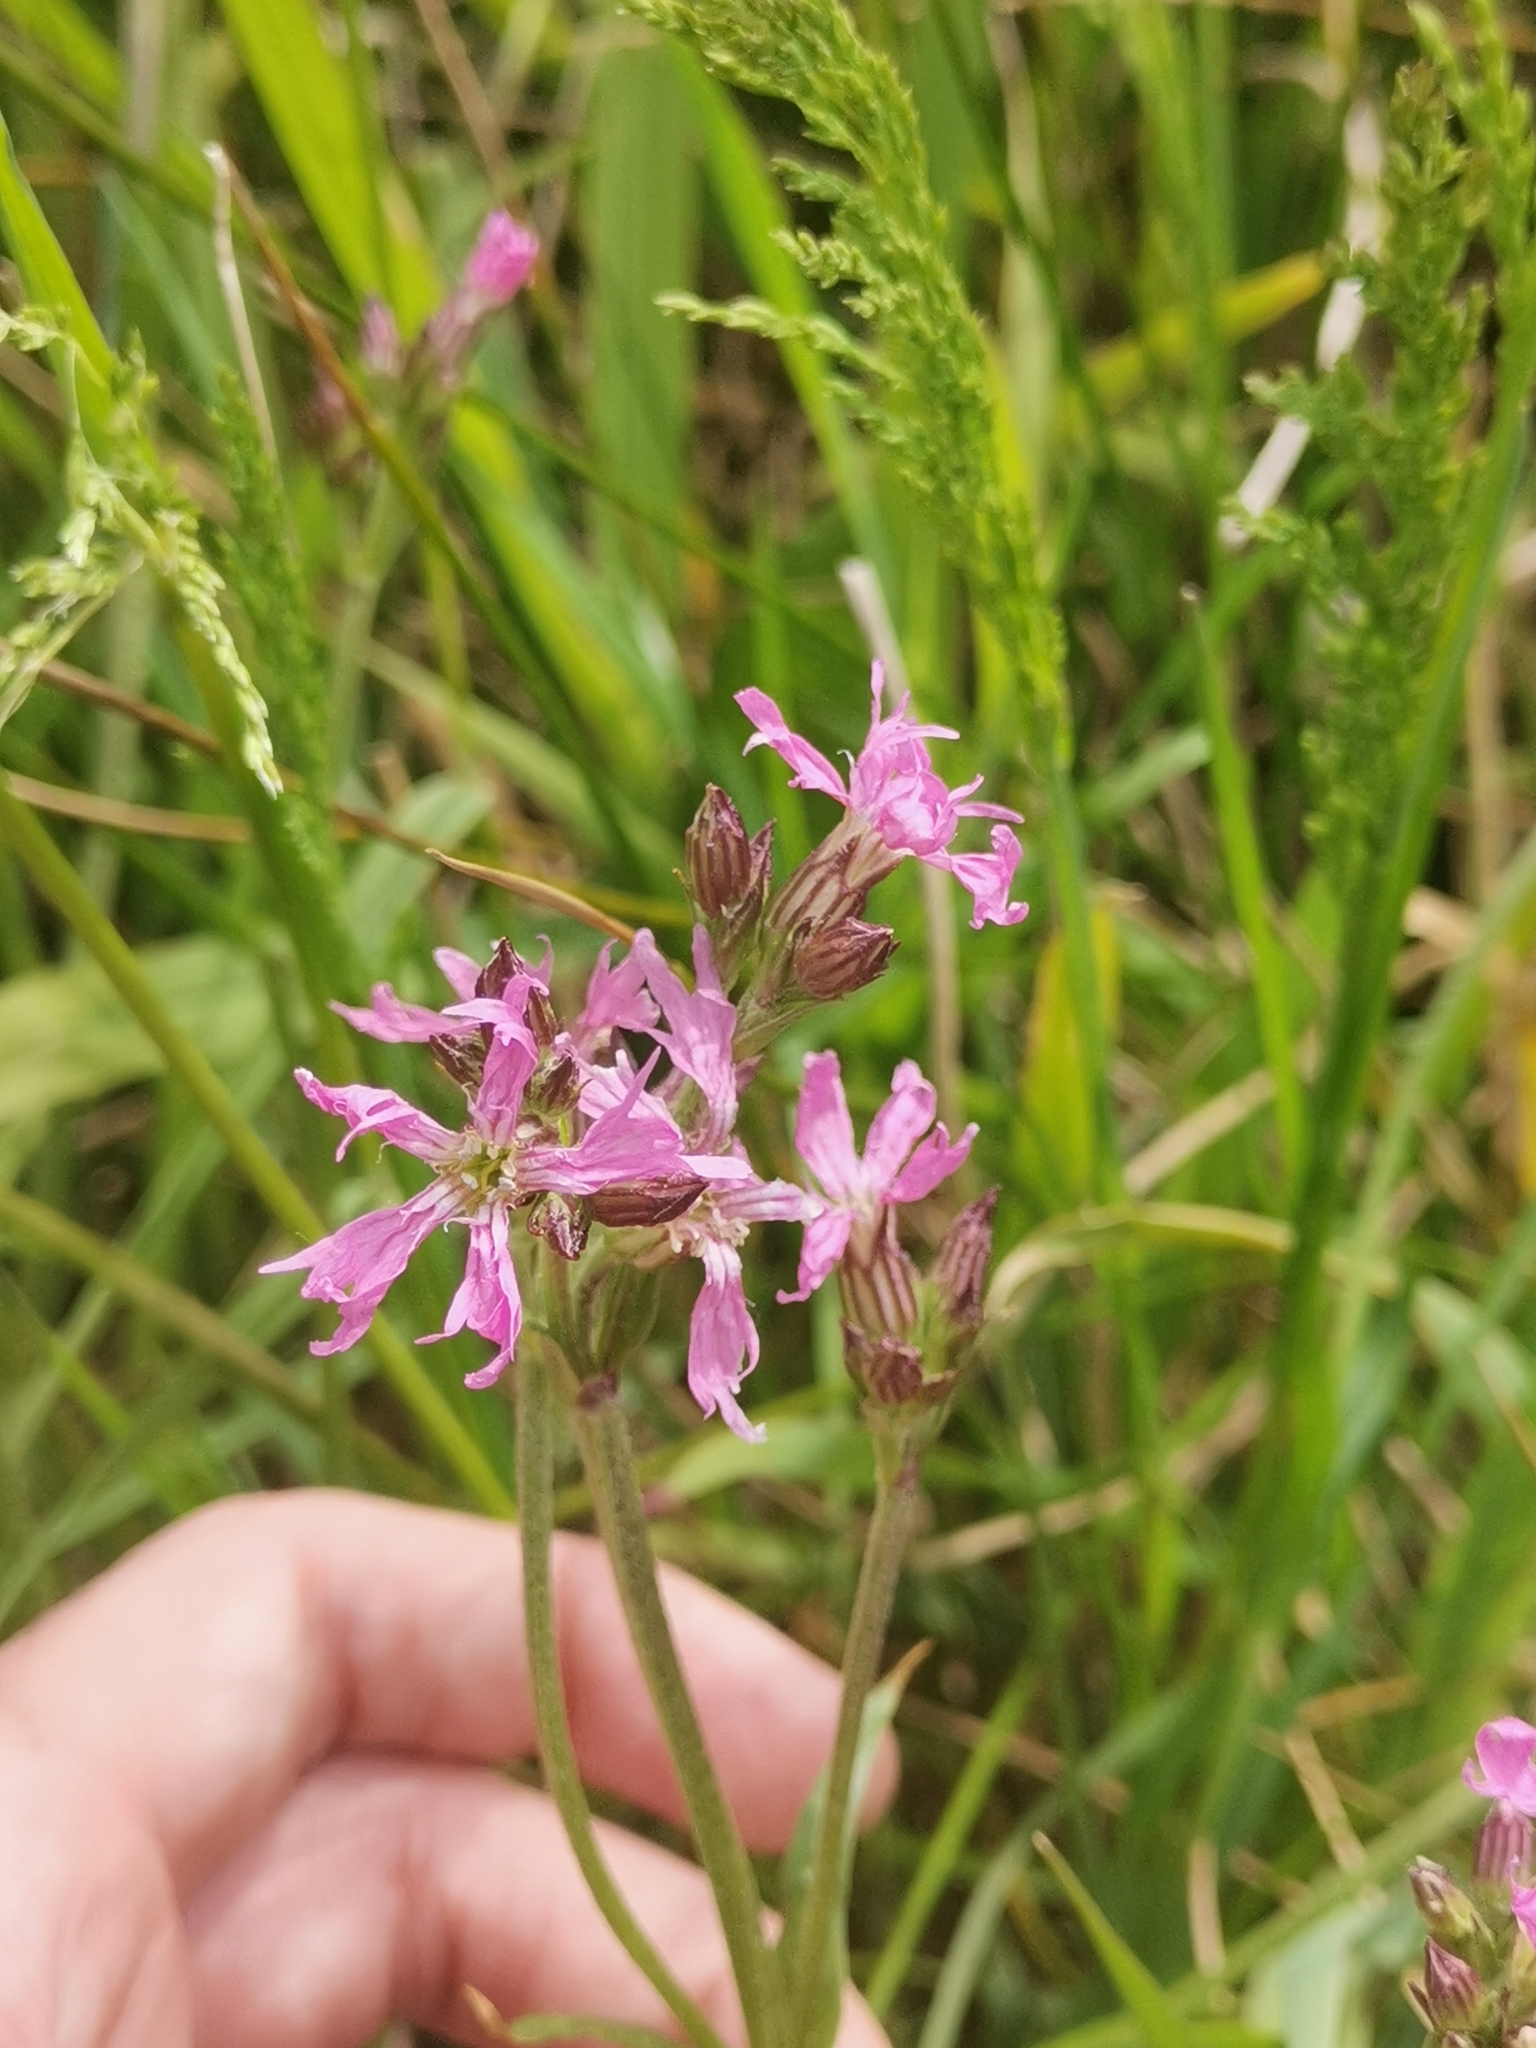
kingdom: Plantae
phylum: Tracheophyta
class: Magnoliopsida
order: Caryophyllales
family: Caryophyllaceae
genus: Silene
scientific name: Silene flos-cuculi
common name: Ragged-robin
